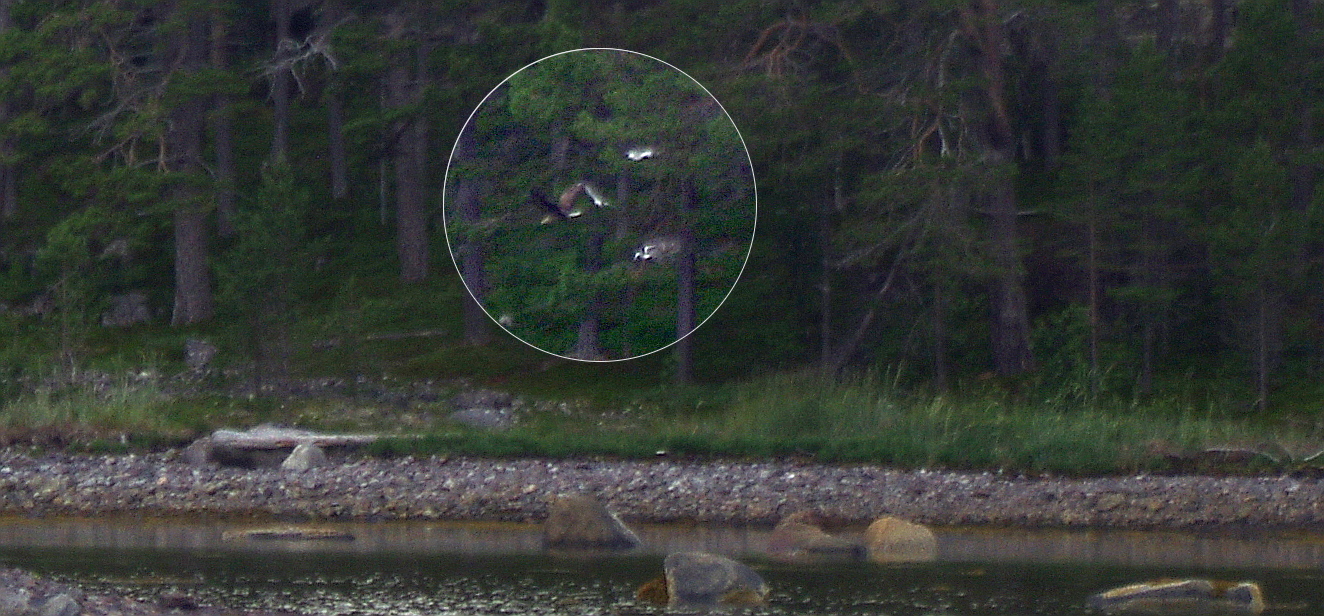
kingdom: Animalia
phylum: Chordata
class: Aves
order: Accipitriformes
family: Accipitridae
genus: Haliaeetus
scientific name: Haliaeetus albicilla
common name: White-tailed eagle
